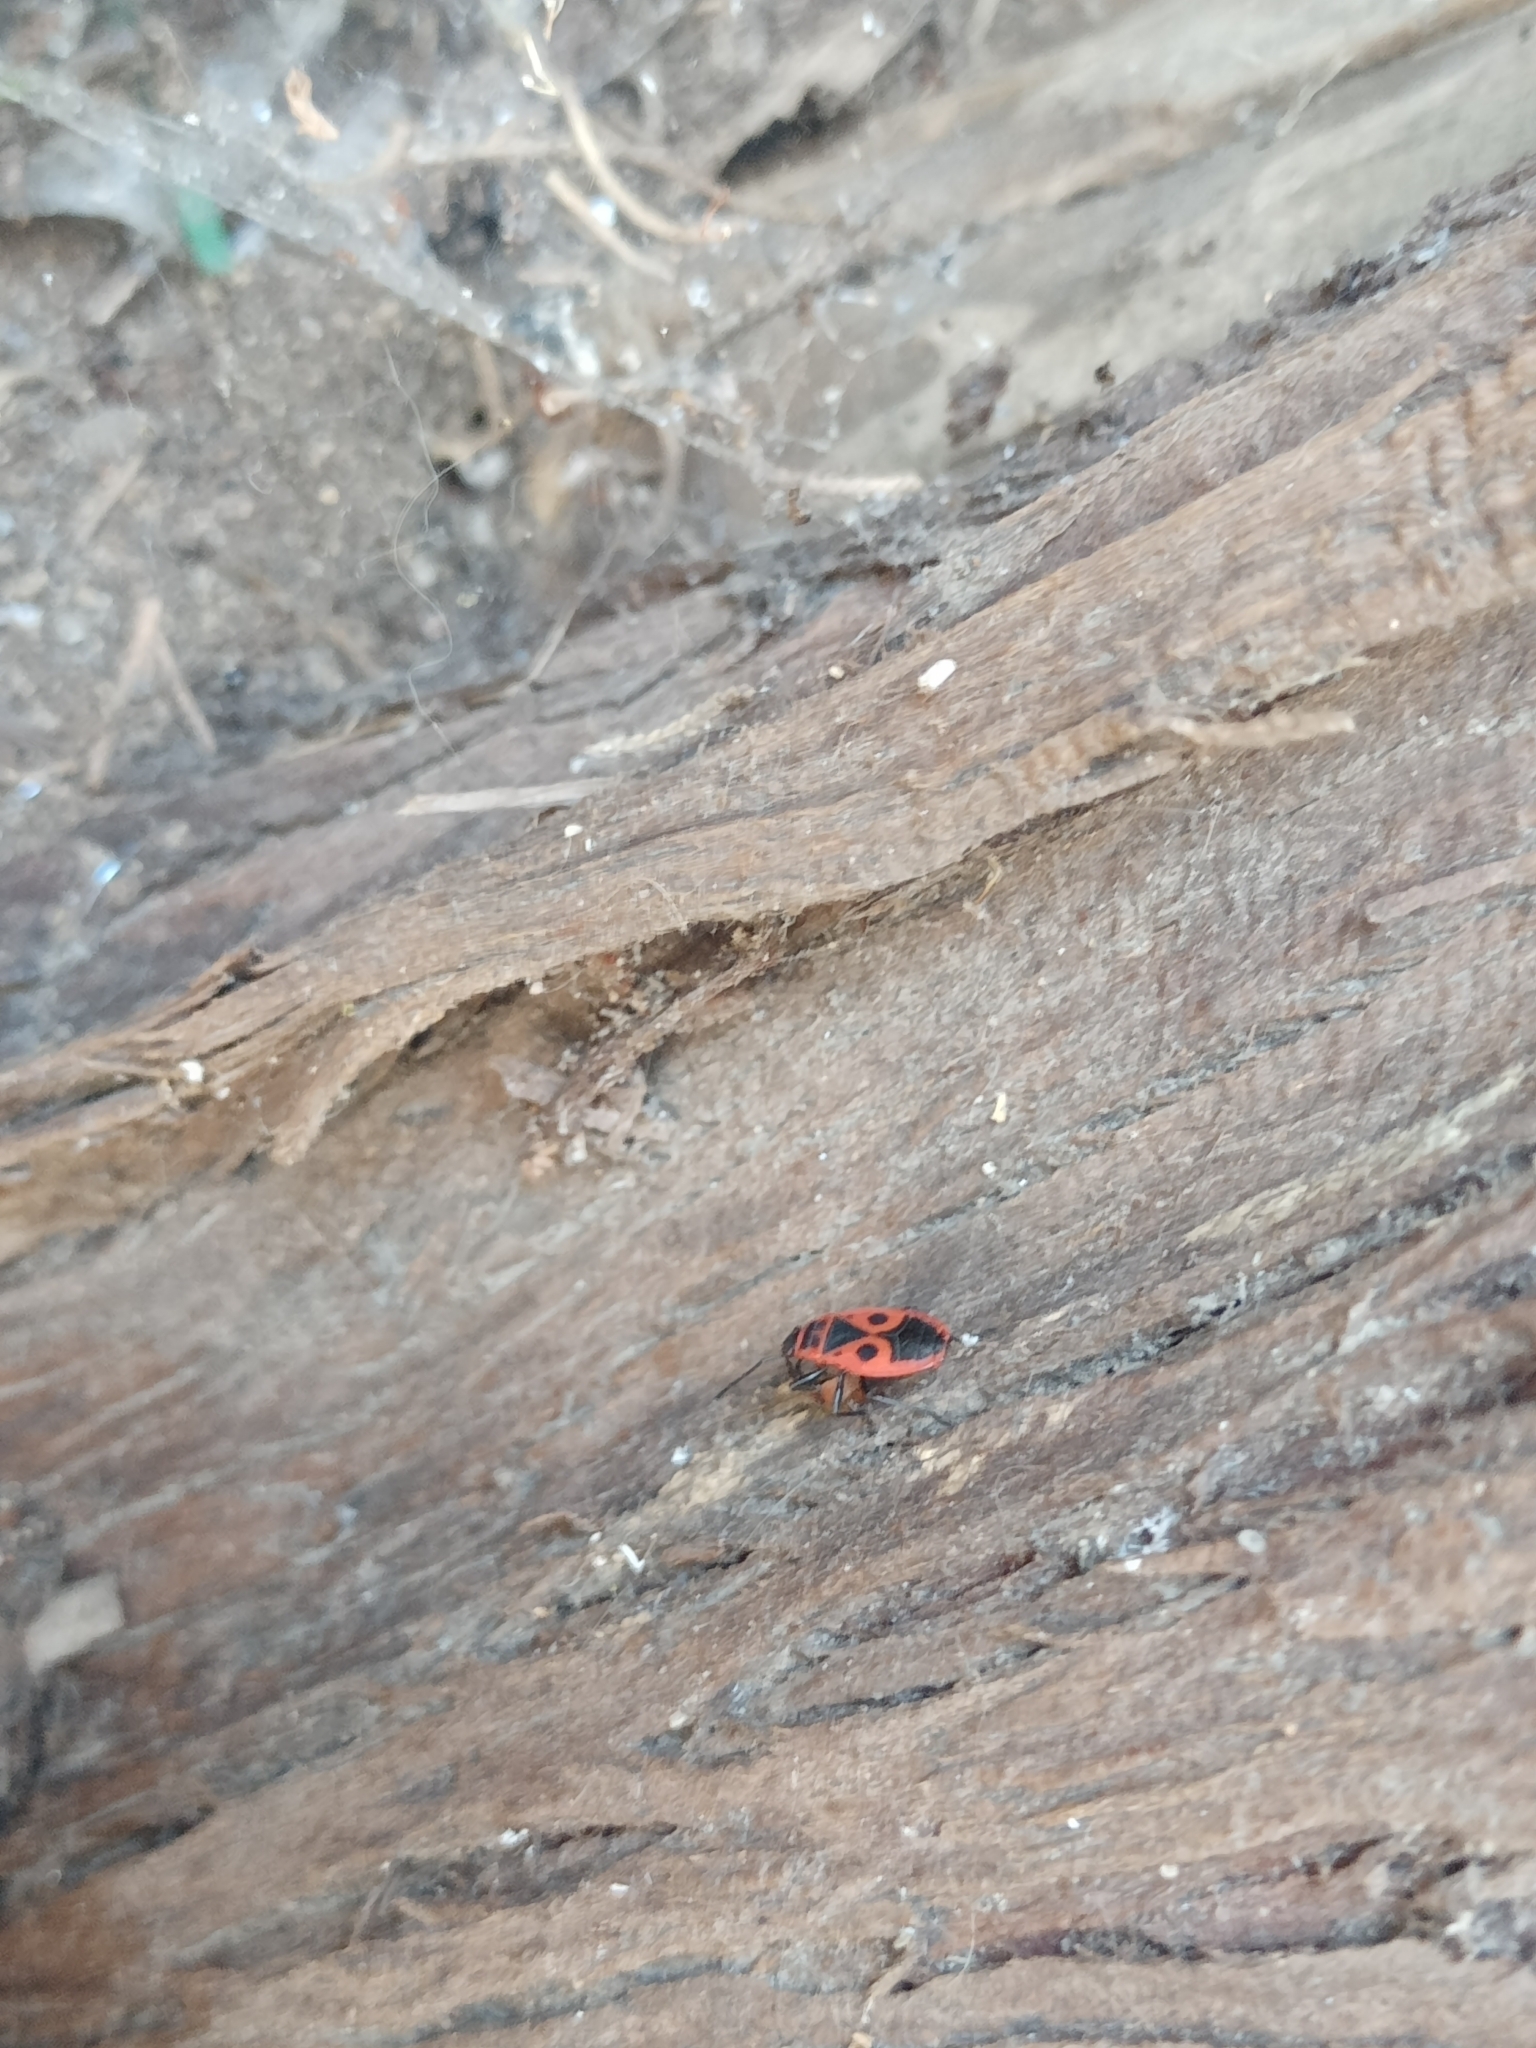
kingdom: Animalia
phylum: Arthropoda
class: Insecta
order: Hemiptera
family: Pyrrhocoridae
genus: Pyrrhocoris
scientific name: Pyrrhocoris apterus
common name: Firebug
